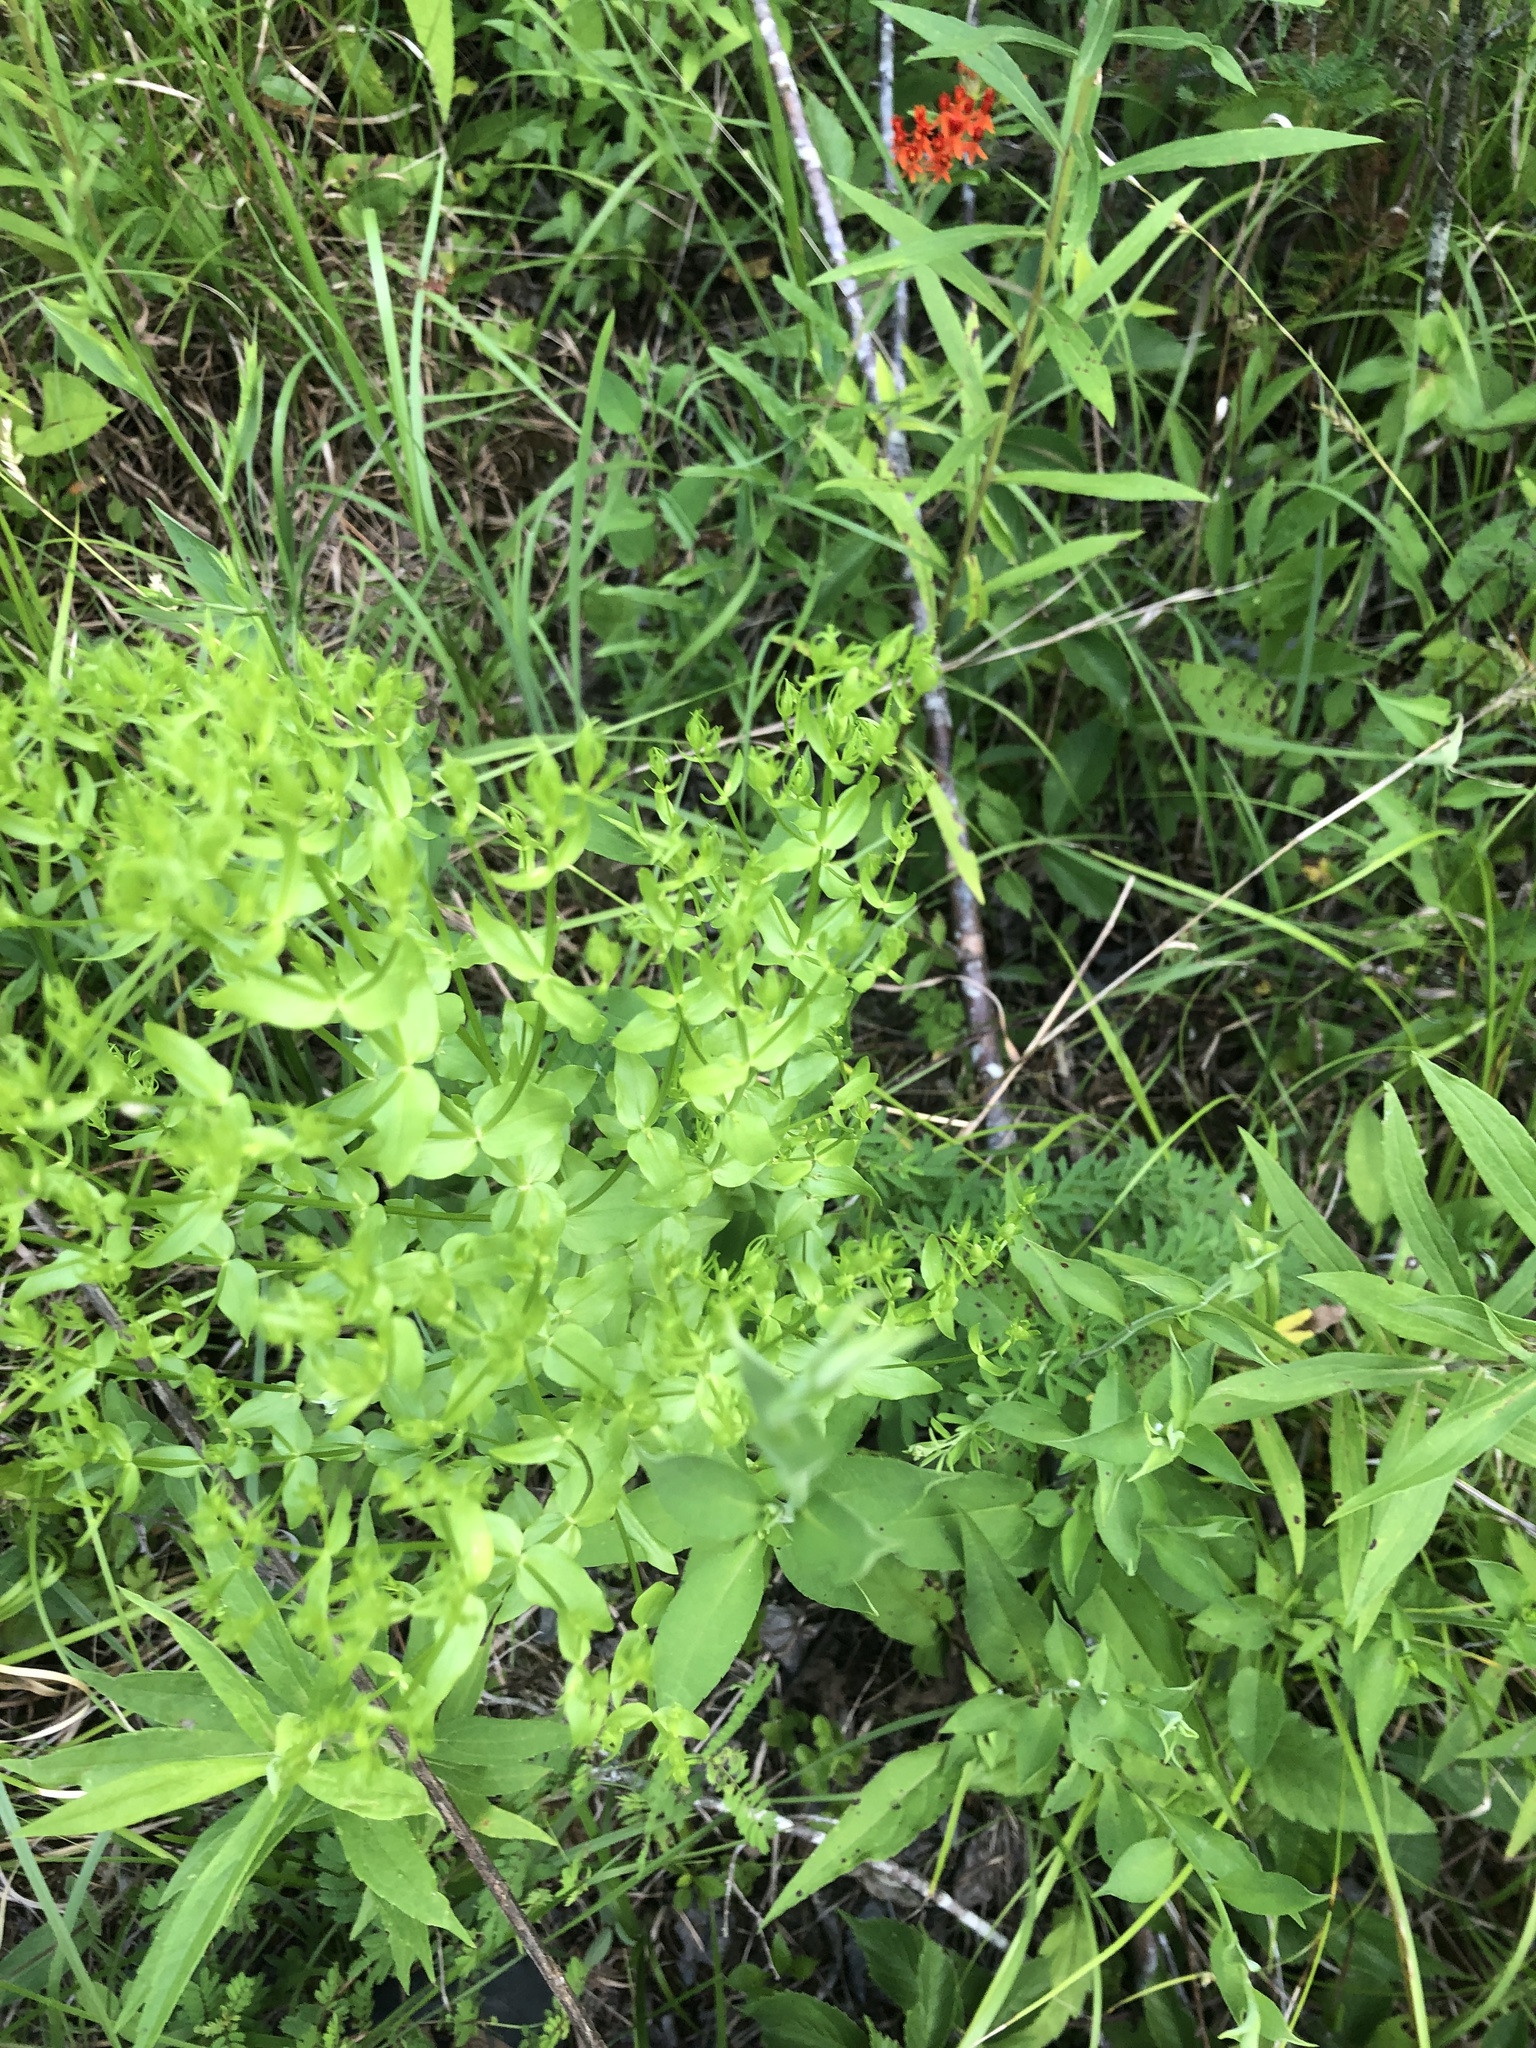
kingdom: Plantae
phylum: Tracheophyta
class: Magnoliopsida
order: Gentianales
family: Gentianaceae
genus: Sabatia
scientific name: Sabatia angularis
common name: Rose-pink
